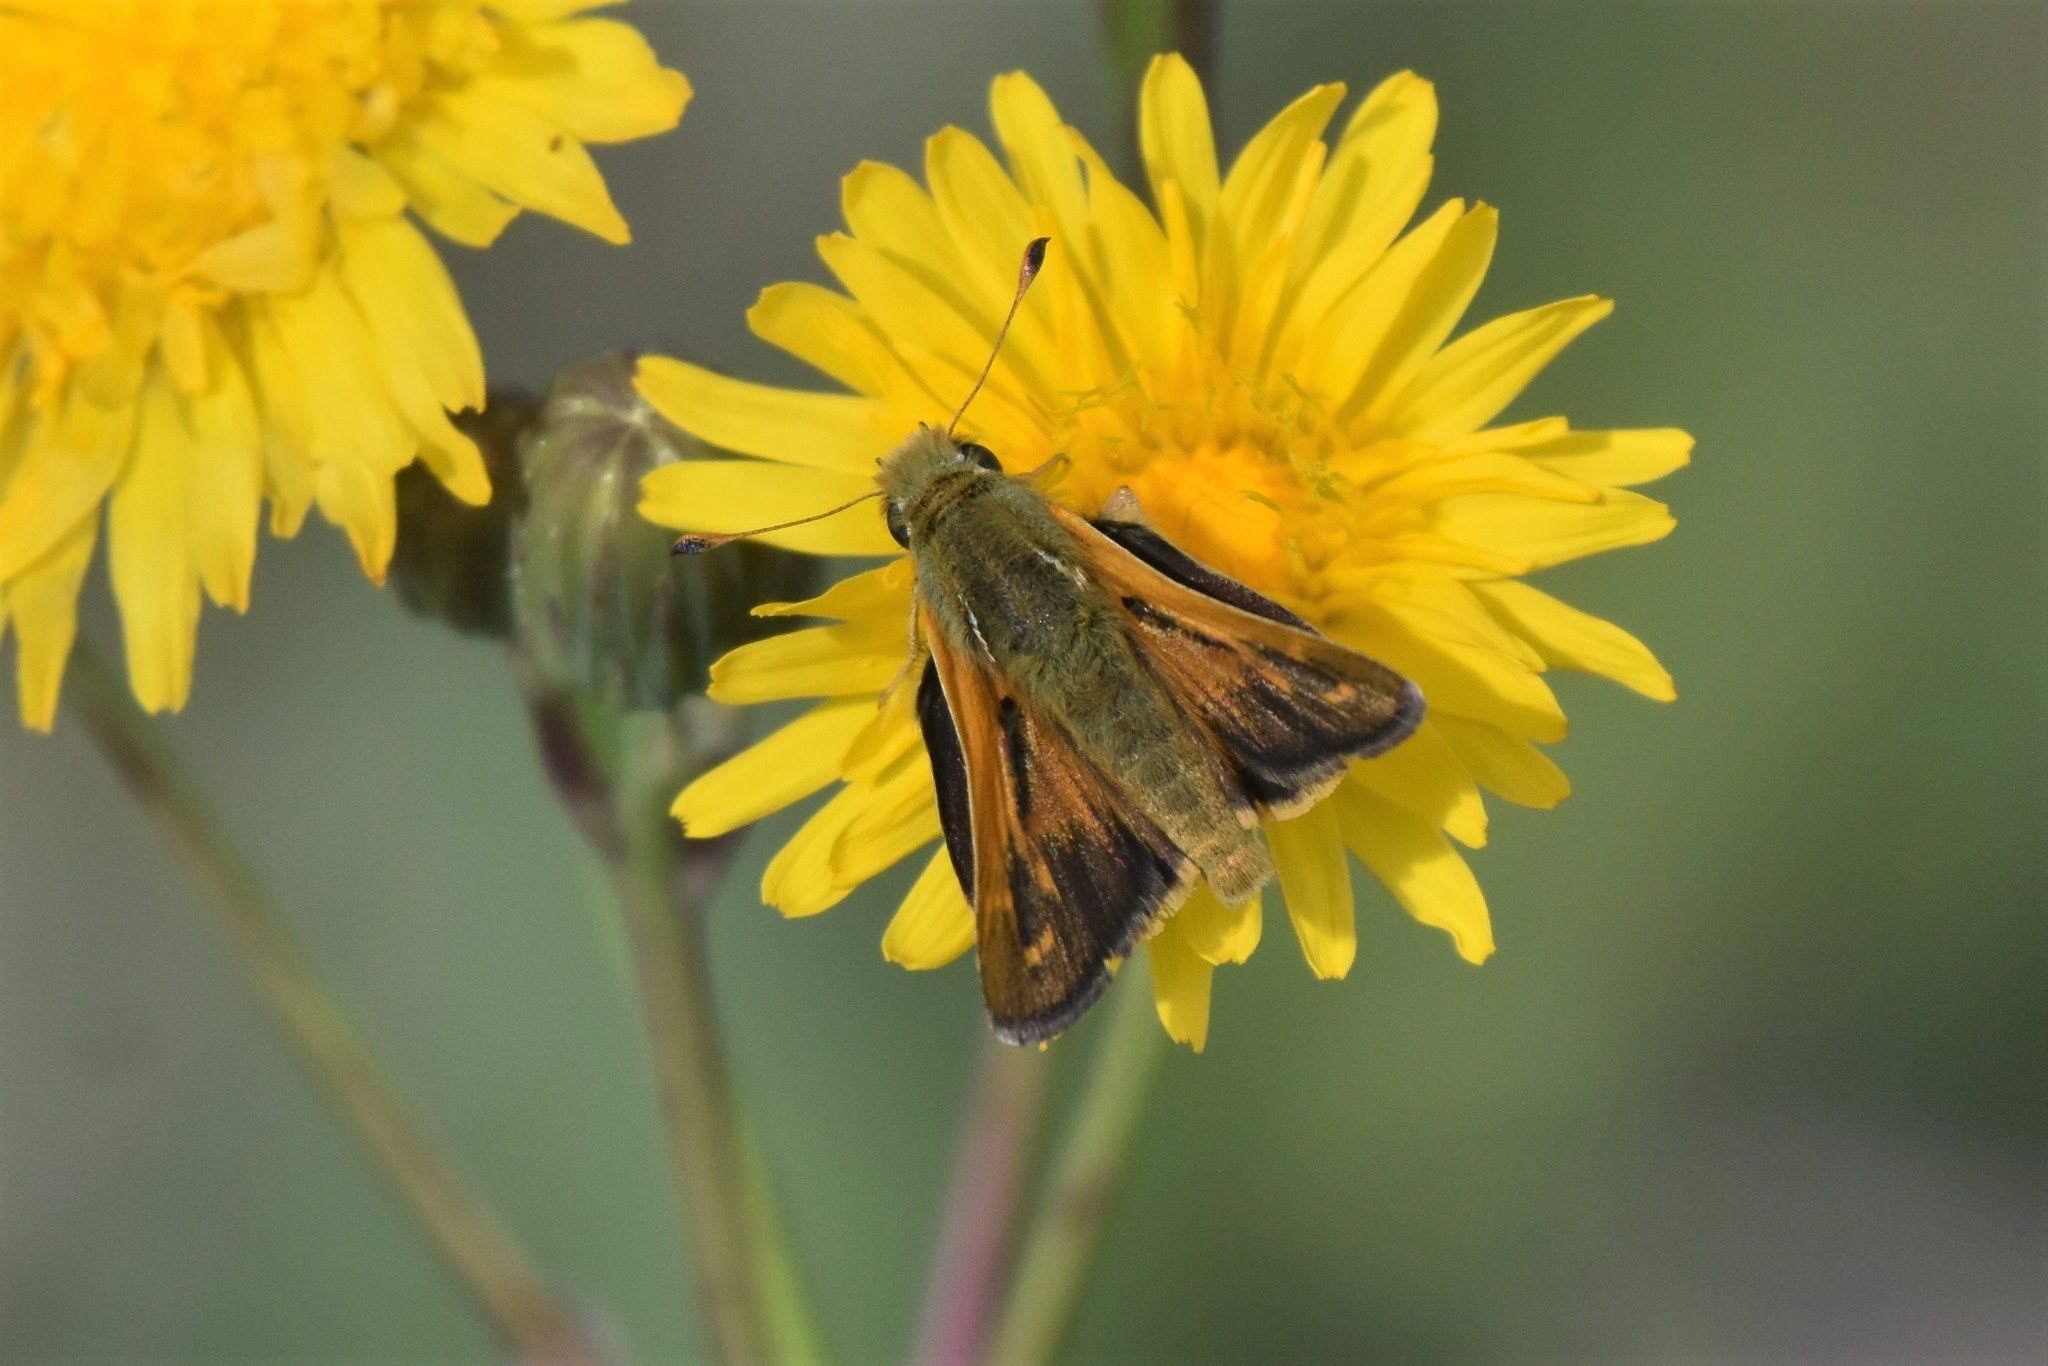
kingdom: Animalia
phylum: Arthropoda
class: Insecta
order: Lepidoptera
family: Hesperiidae
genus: Hesperia
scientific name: Hesperia comma
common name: Common branded skipper
